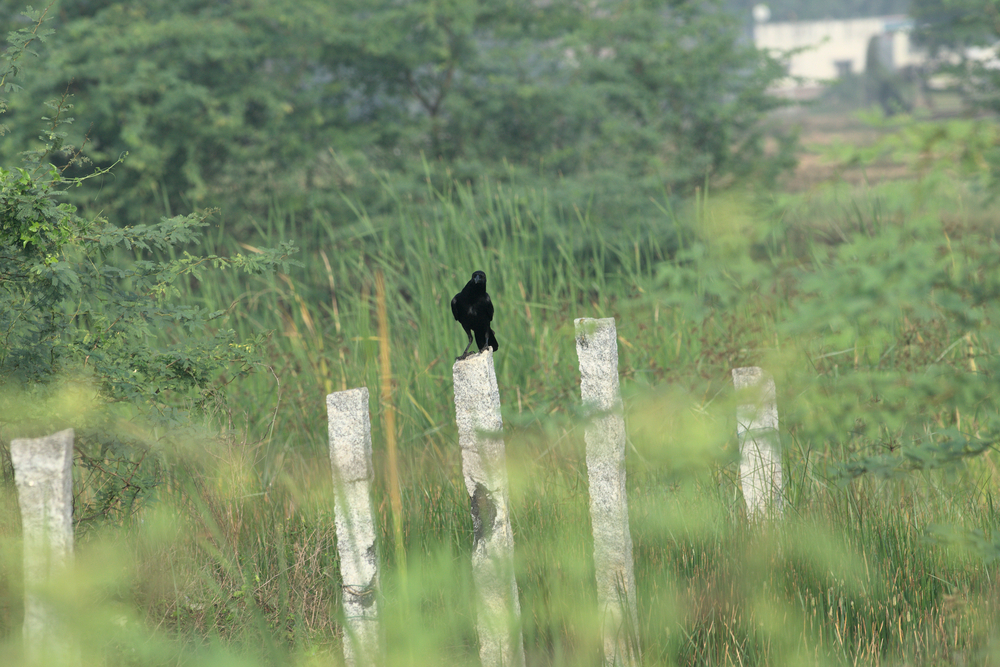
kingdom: Animalia
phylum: Chordata
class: Aves
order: Passeriformes
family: Corvidae
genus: Corvus
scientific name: Corvus macrorhynchos
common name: Large-billed crow
